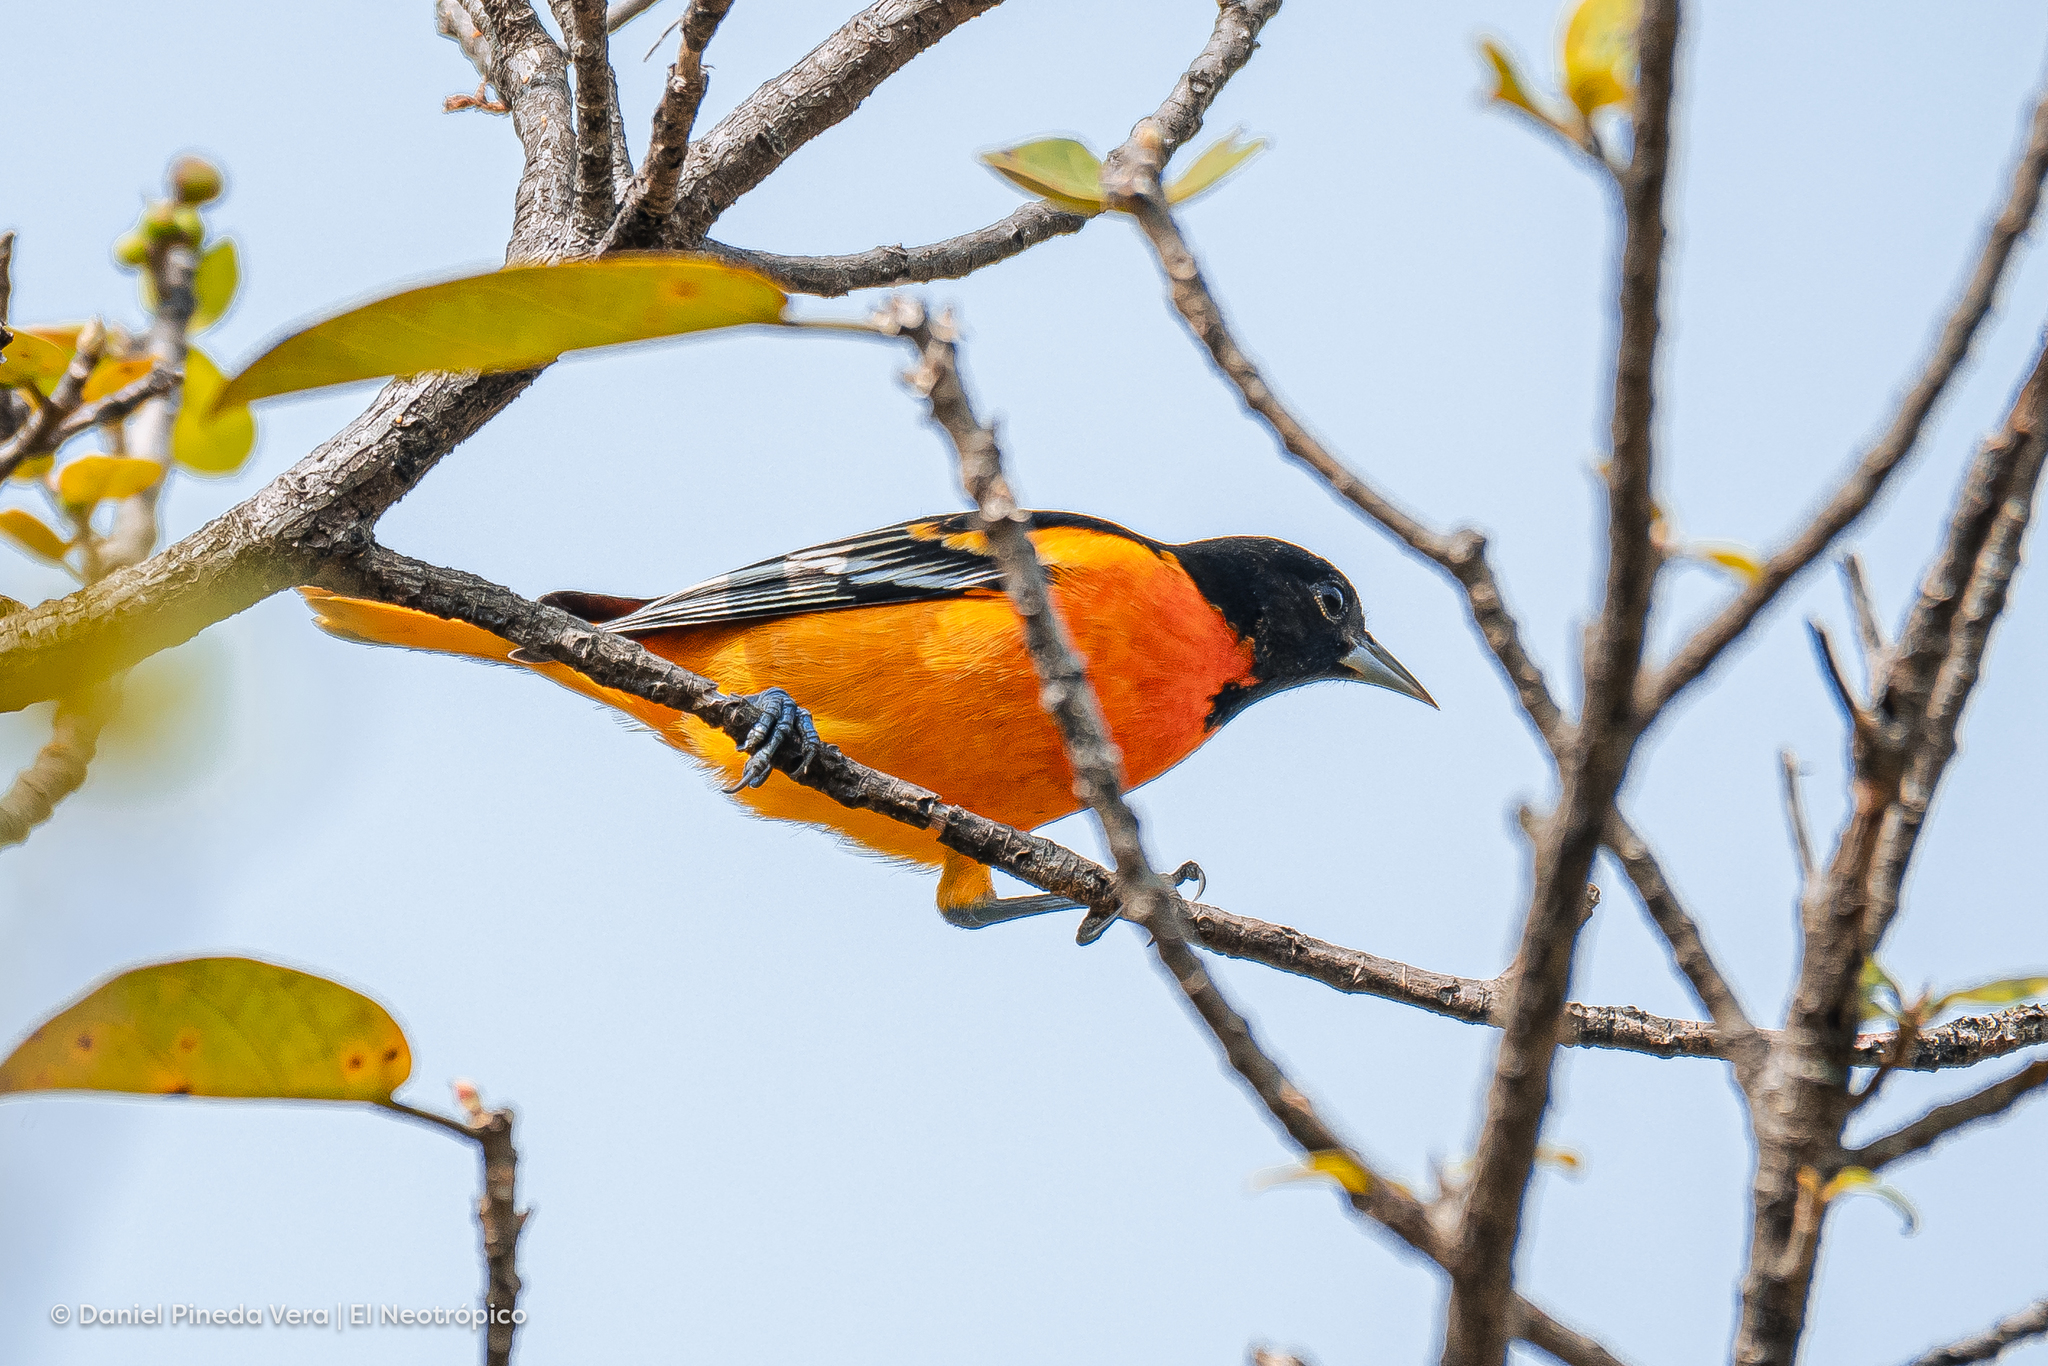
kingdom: Animalia
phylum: Chordata
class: Aves
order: Passeriformes
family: Icteridae
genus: Icterus
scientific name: Icterus galbula
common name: Baltimore oriole
